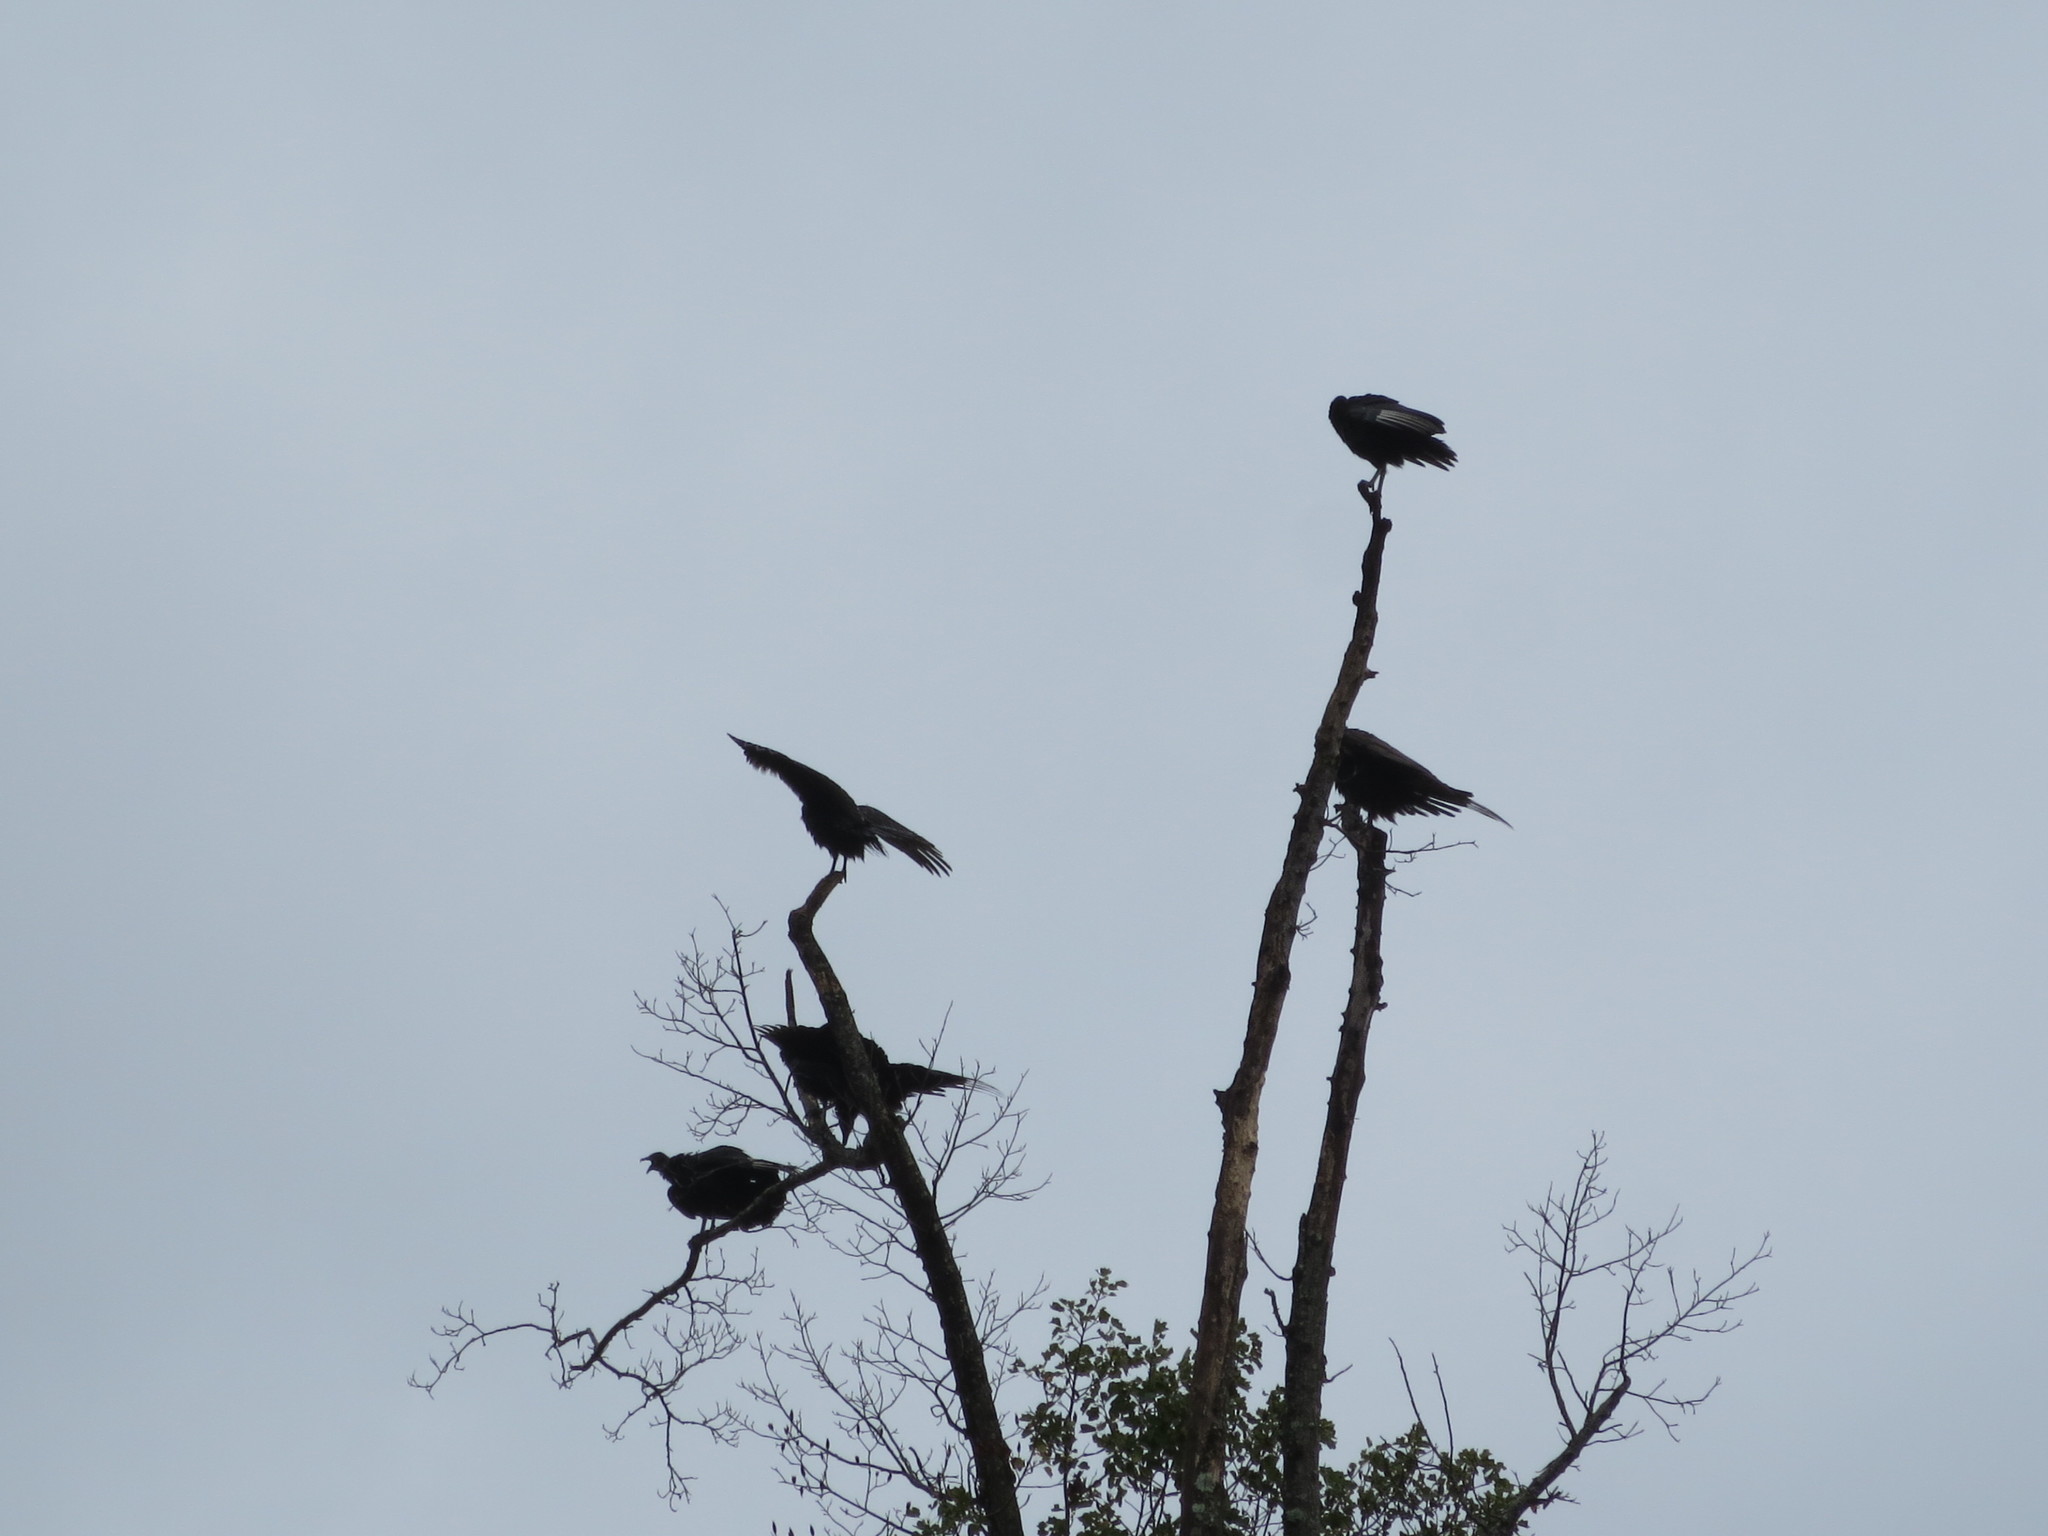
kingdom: Animalia
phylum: Chordata
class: Aves
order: Accipitriformes
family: Cathartidae
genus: Cathartes
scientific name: Cathartes aura
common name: Turkey vulture
